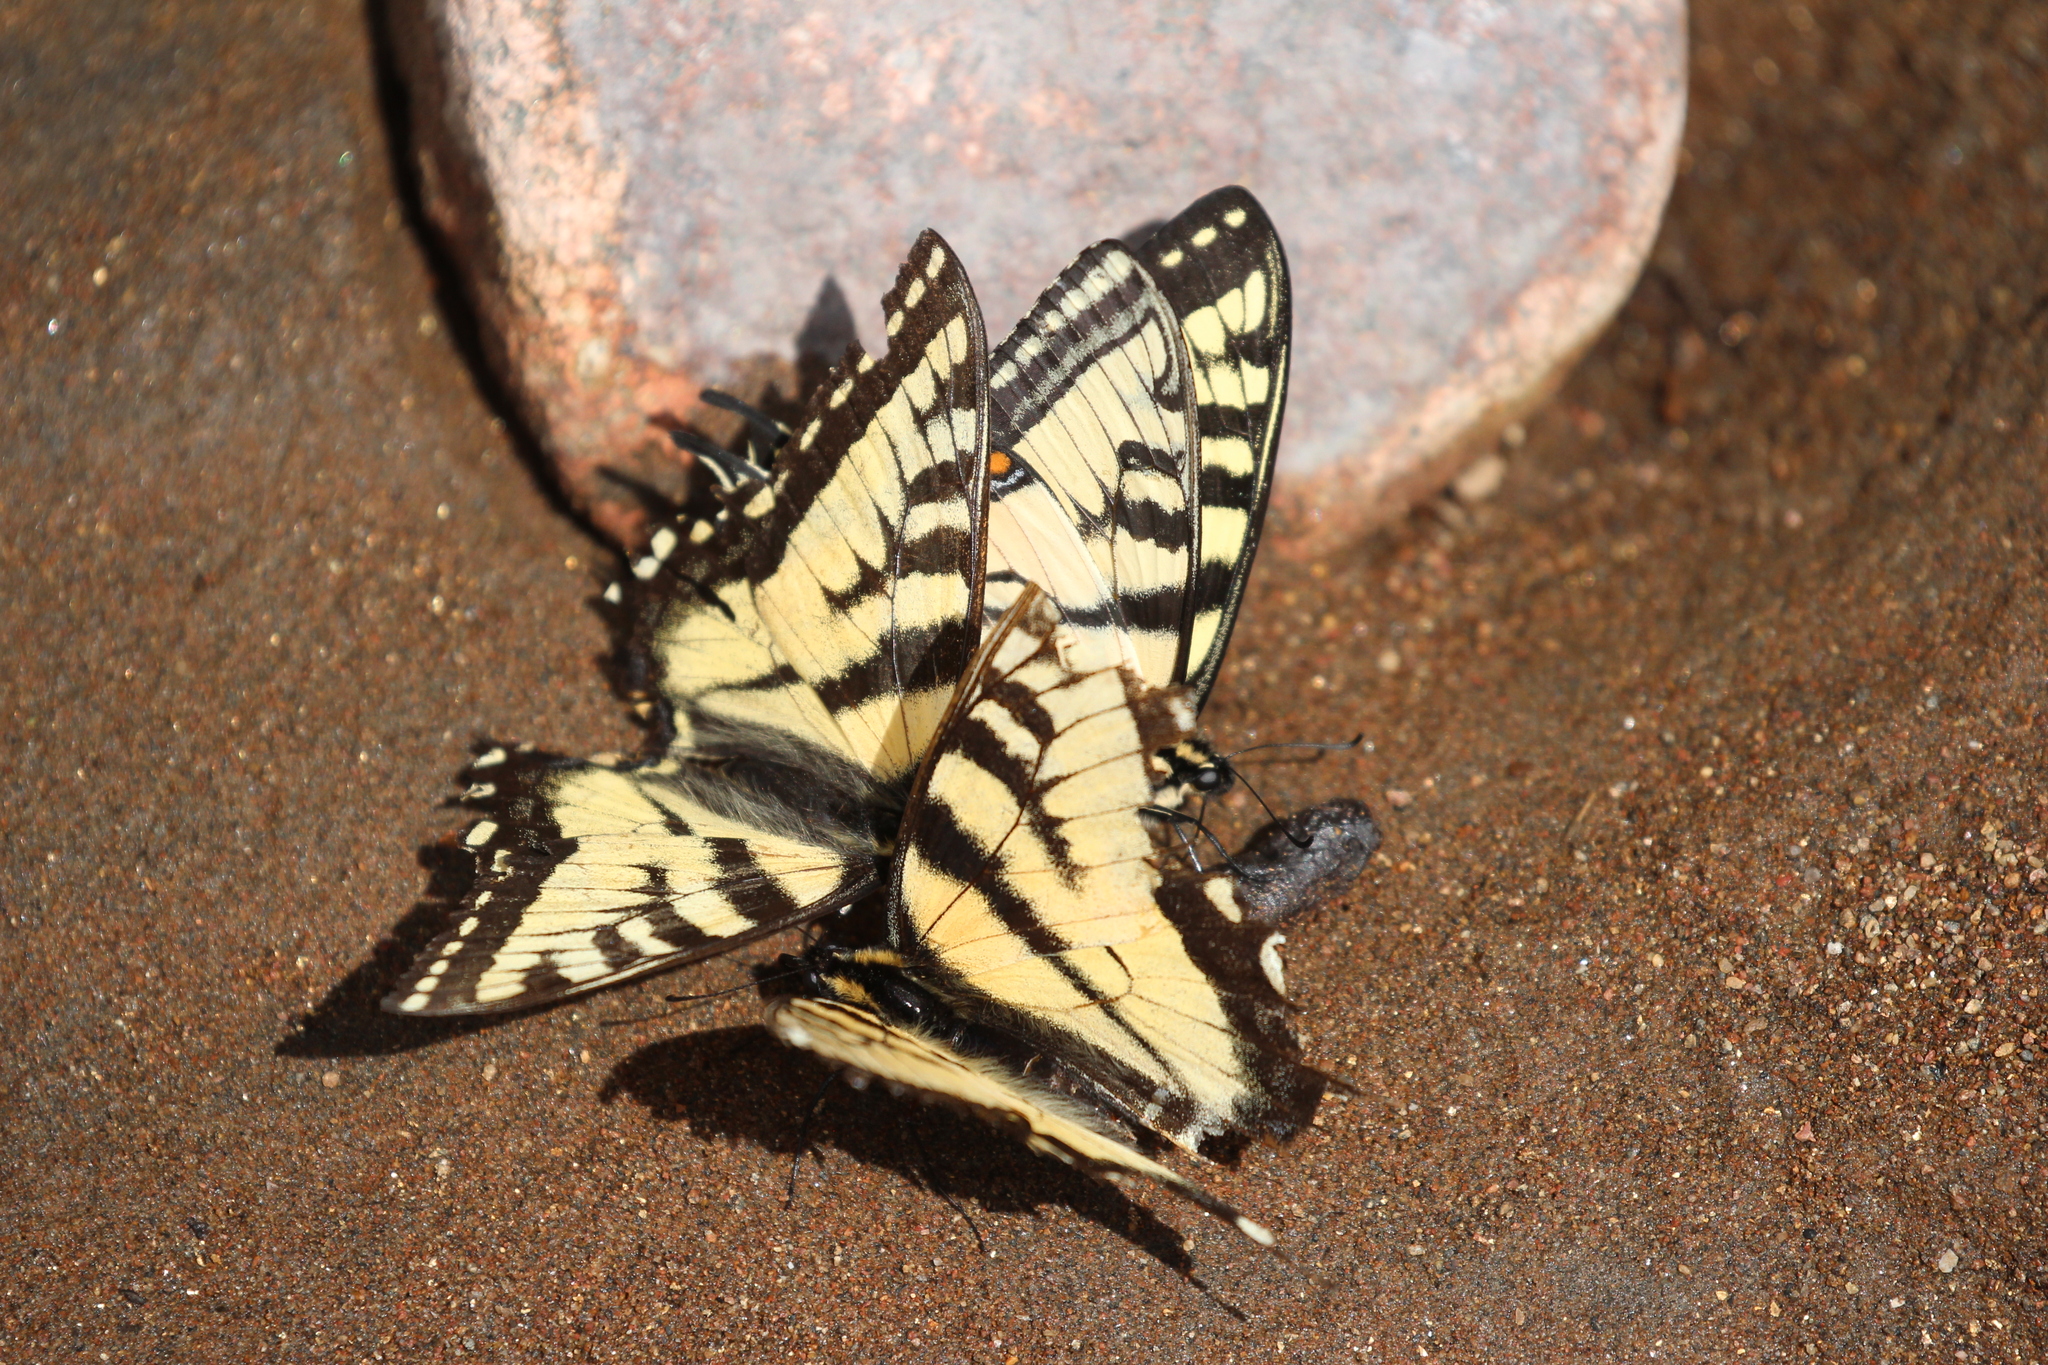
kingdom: Animalia
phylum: Arthropoda
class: Insecta
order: Lepidoptera
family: Papilionidae
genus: Papilio
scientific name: Papilio canadensis
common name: Canadian tiger swallowtail
